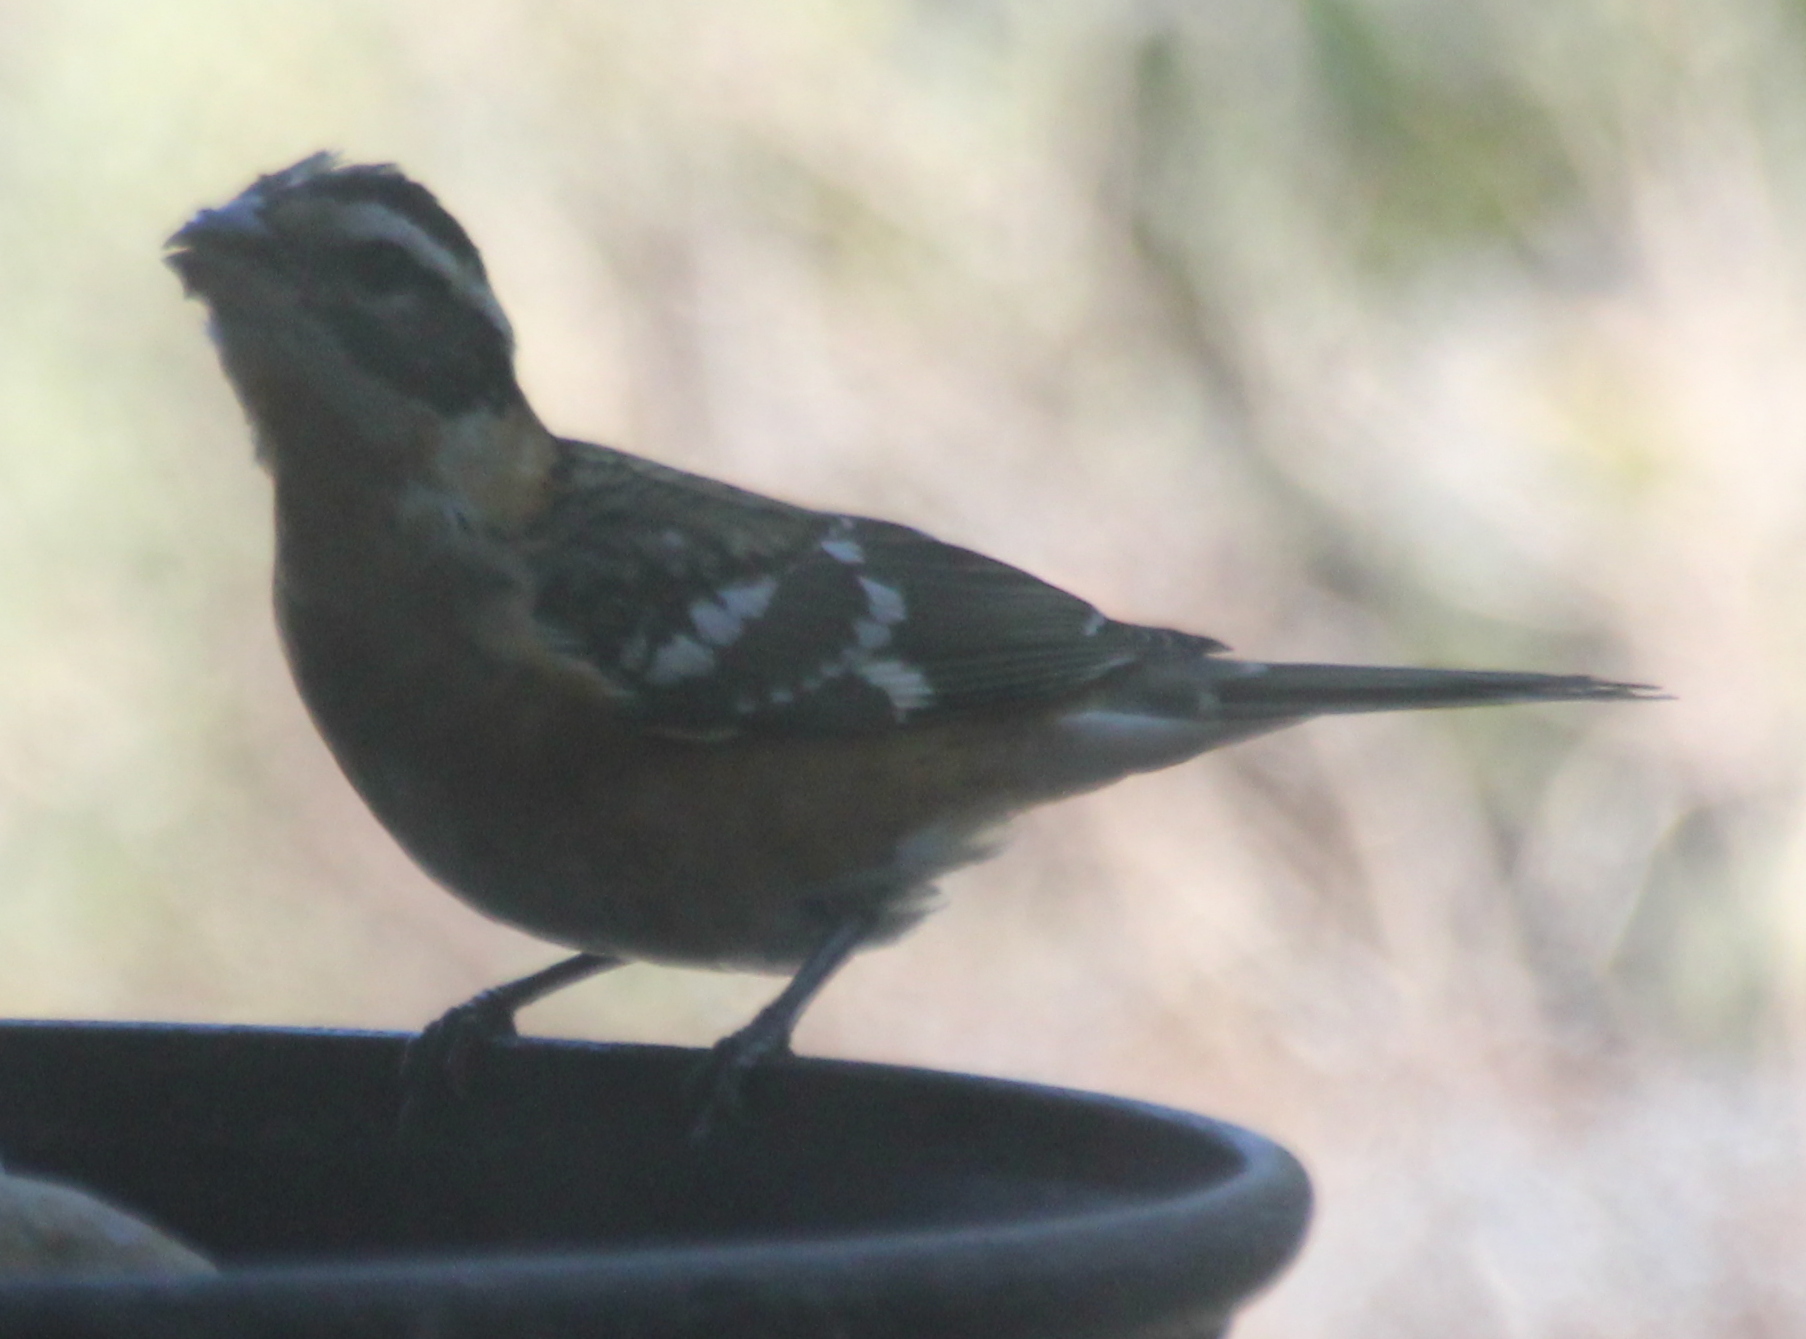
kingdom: Animalia
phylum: Chordata
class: Aves
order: Passeriformes
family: Cardinalidae
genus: Pheucticus
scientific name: Pheucticus melanocephalus
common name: Black-headed grosbeak
